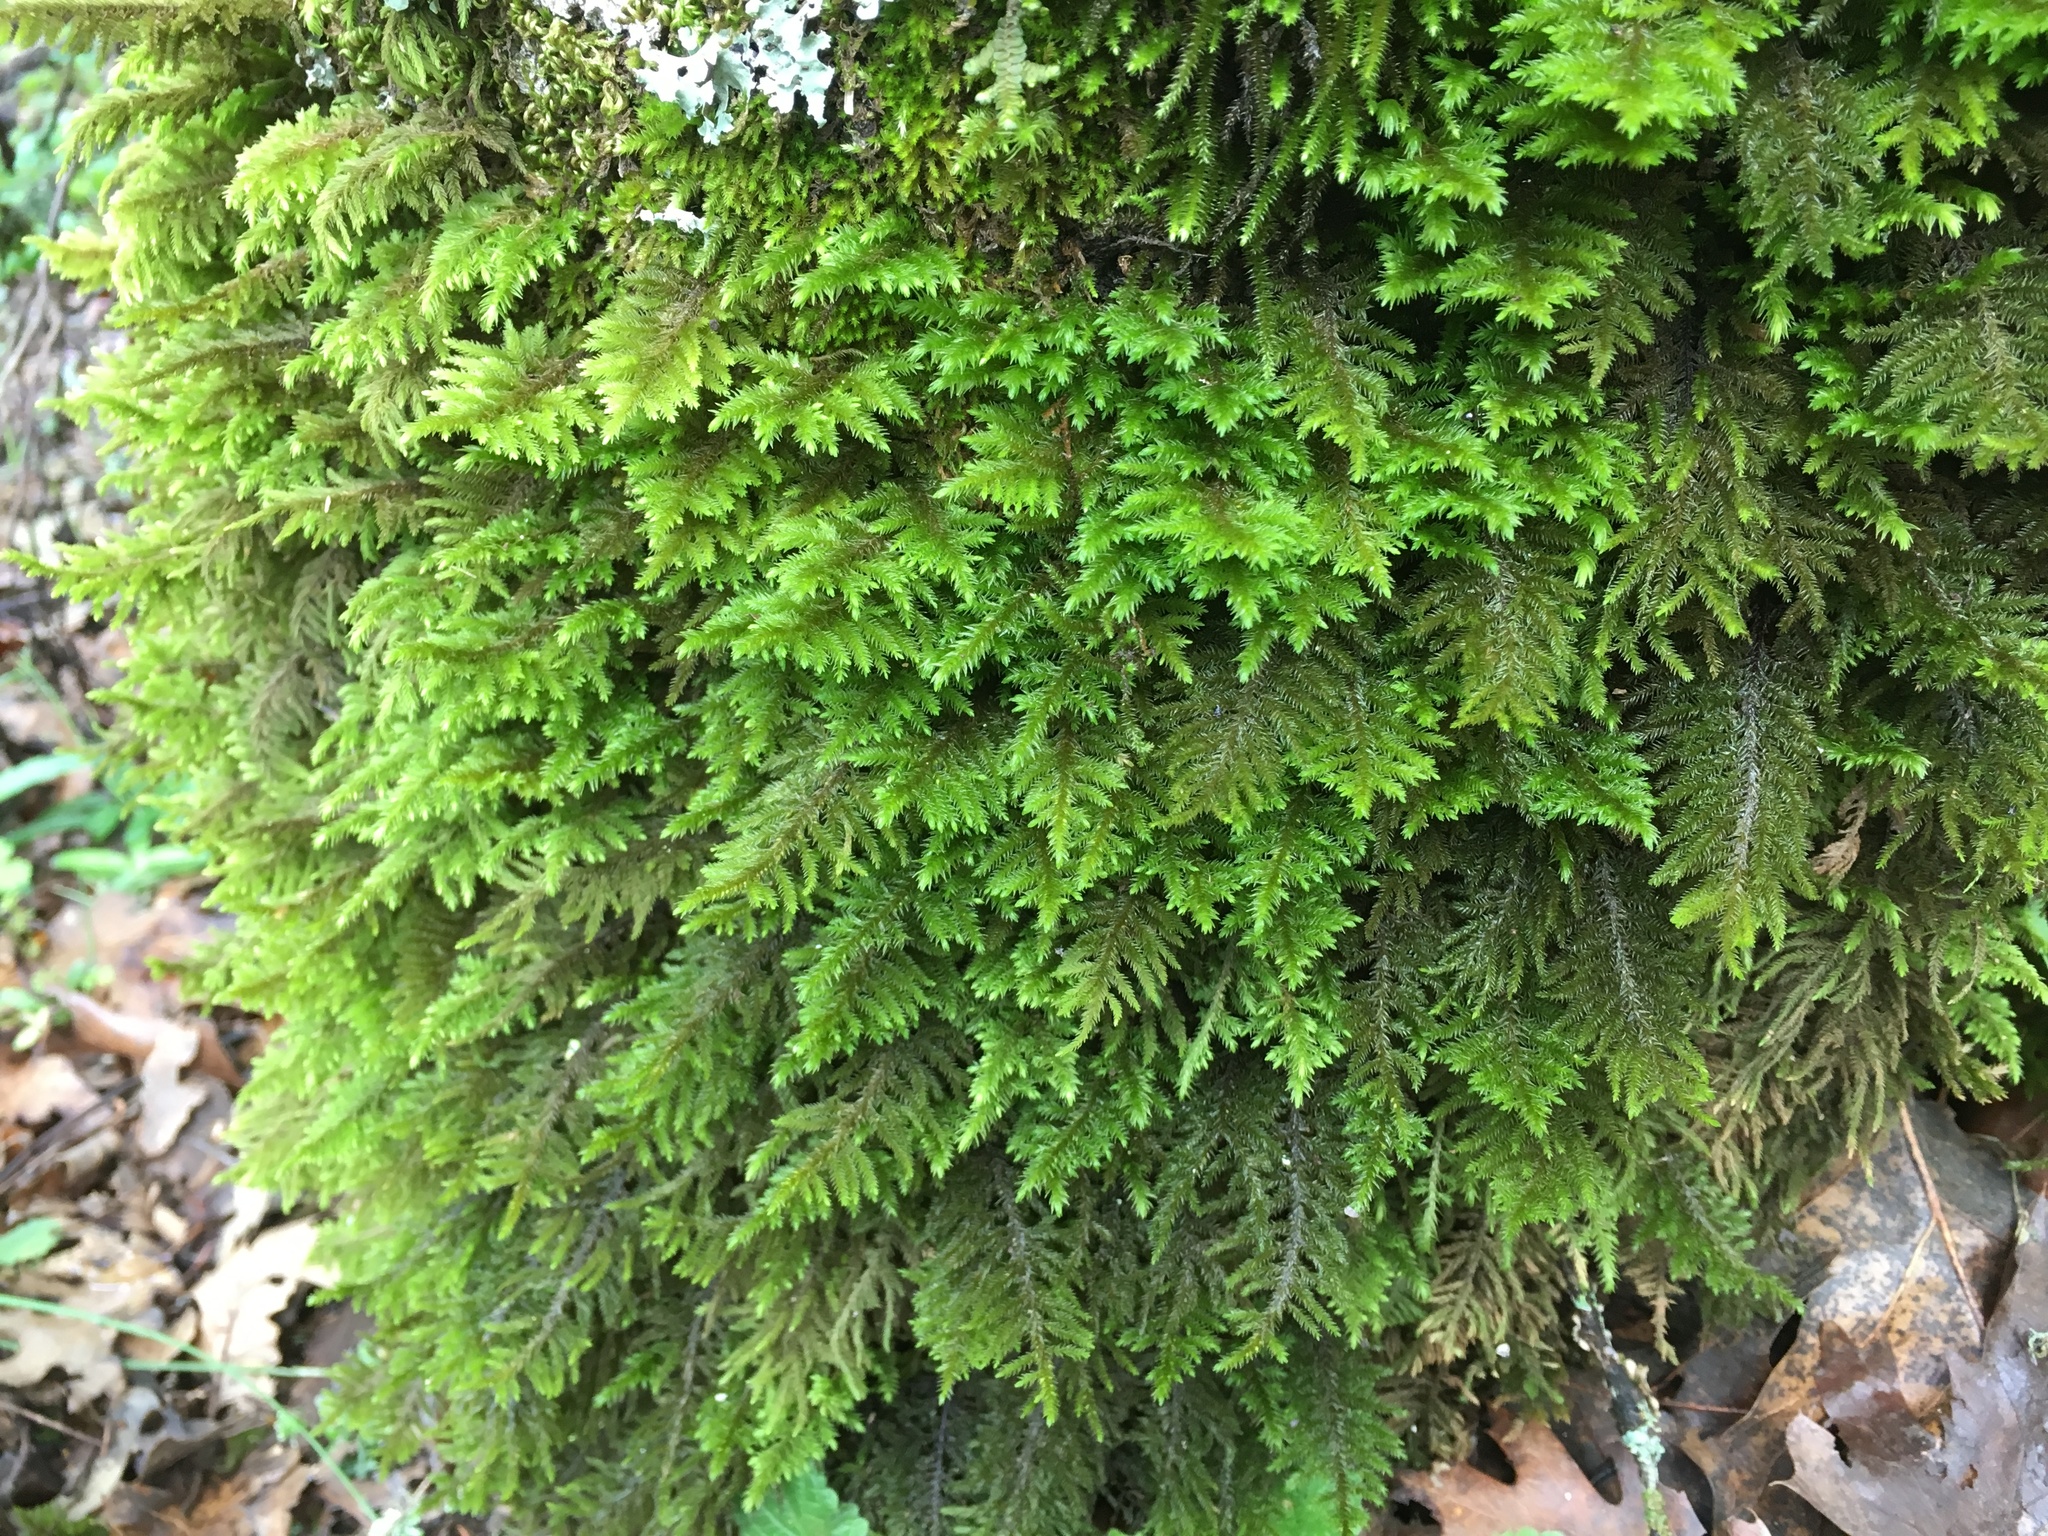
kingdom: Plantae
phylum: Bryophyta
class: Bryopsida
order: Hypnales
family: Cryphaeaceae
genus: Dendroalsia
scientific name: Dendroalsia abietina
